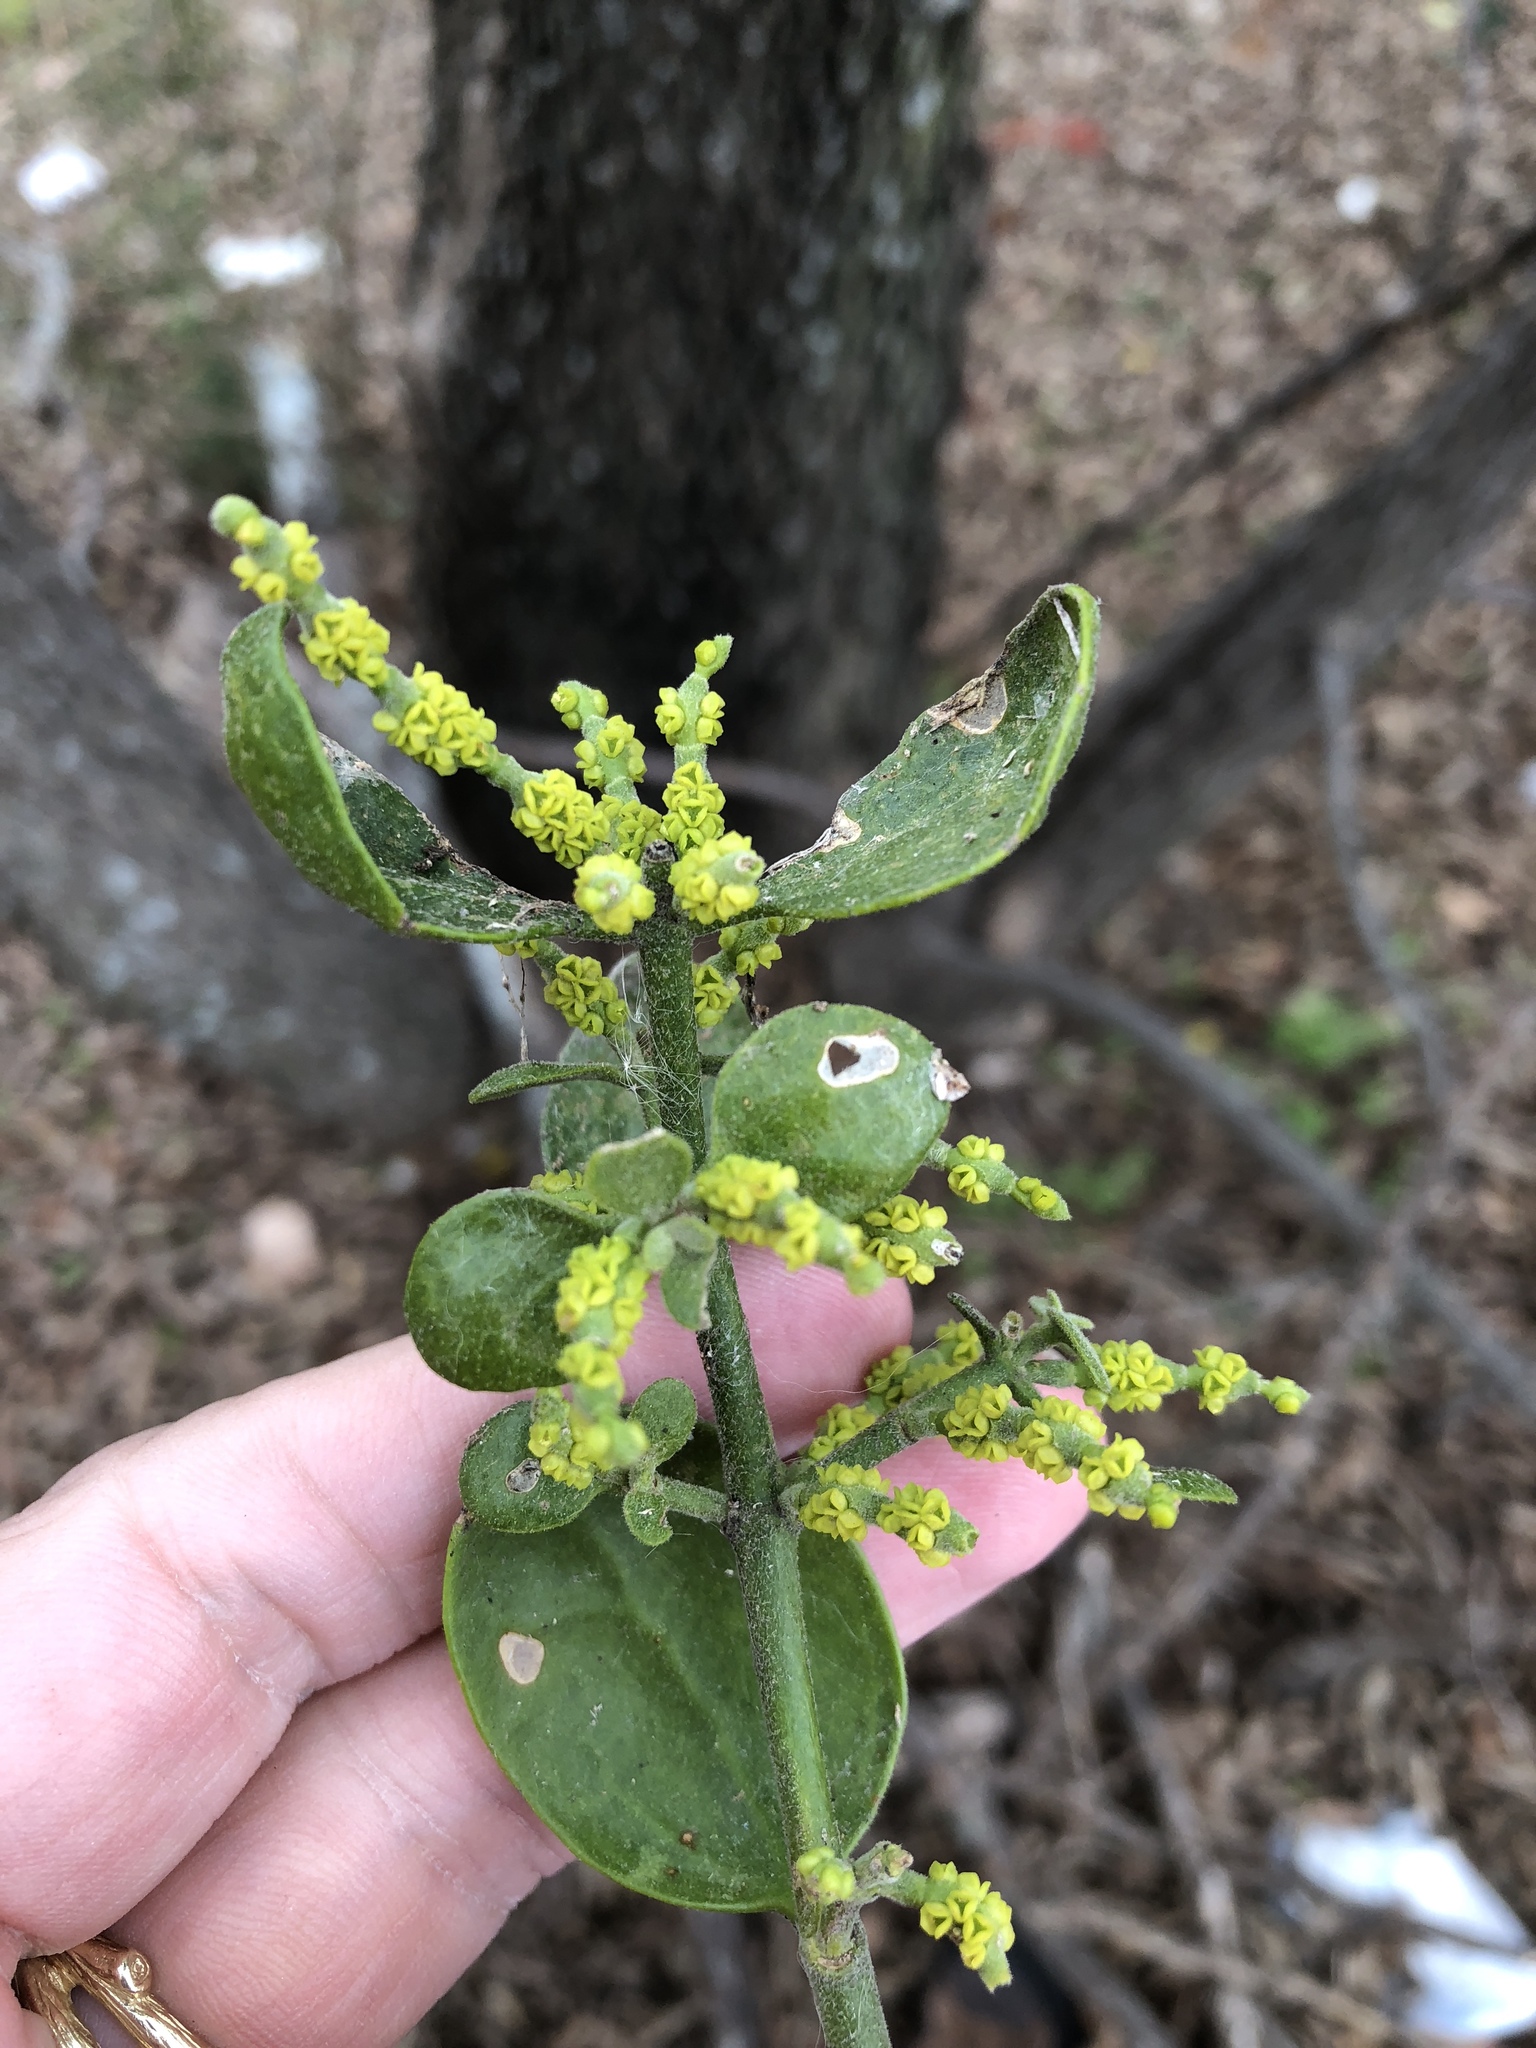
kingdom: Plantae
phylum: Tracheophyta
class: Magnoliopsida
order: Santalales
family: Viscaceae
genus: Phoradendron
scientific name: Phoradendron leucarpum
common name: Pacific mistletoe
